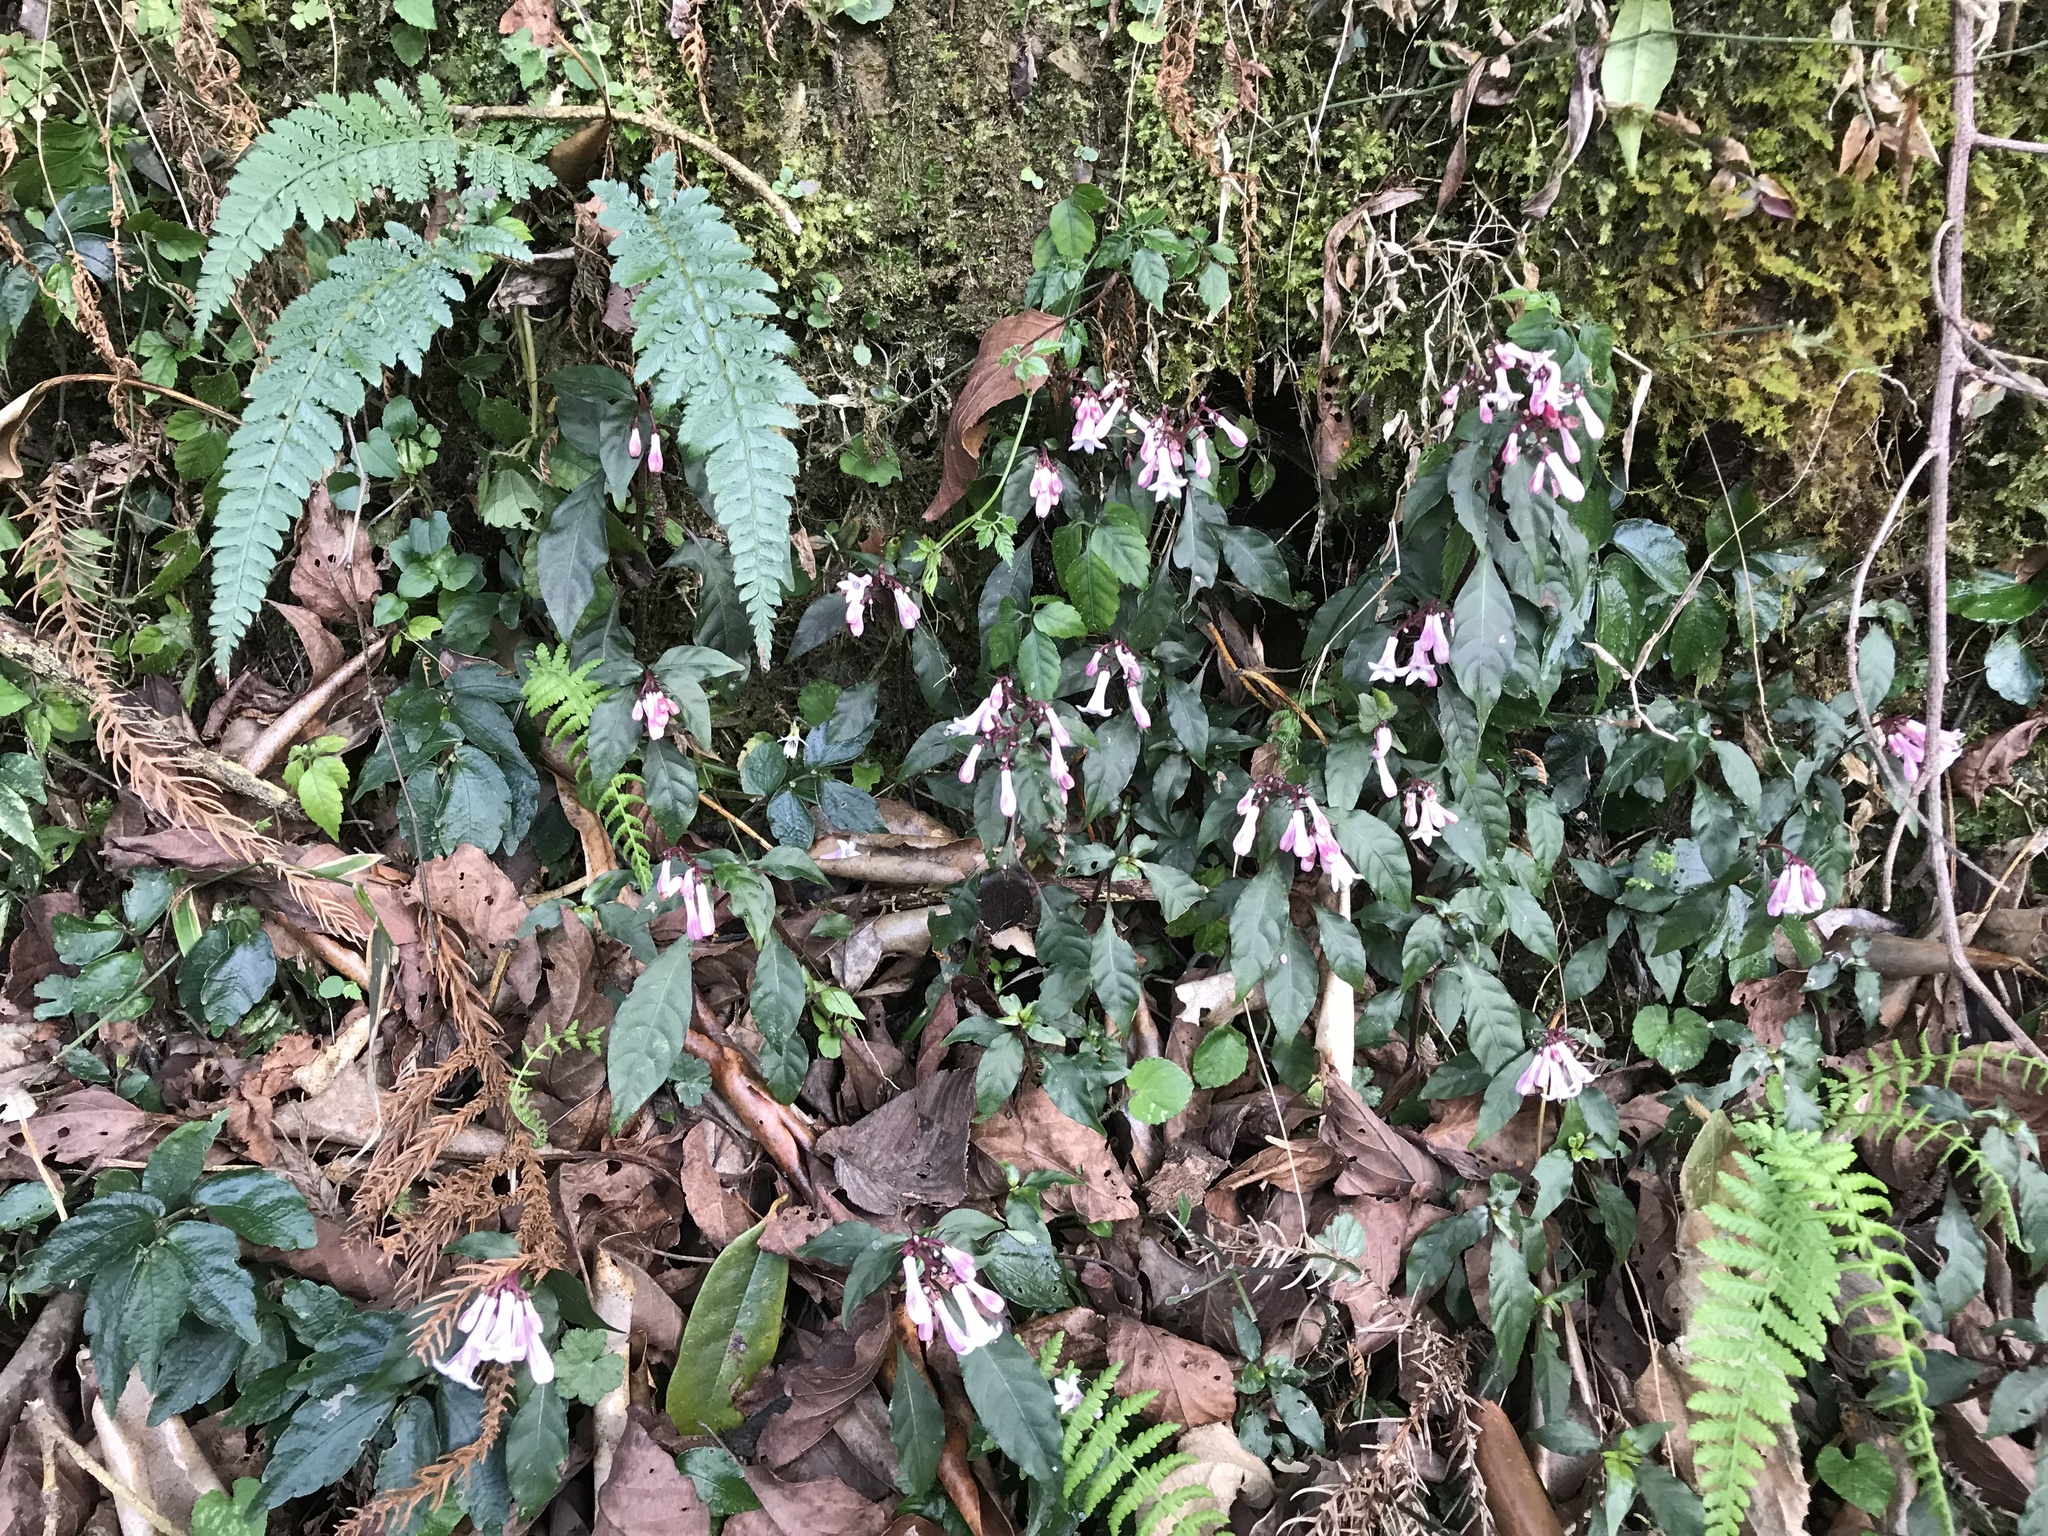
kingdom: Plantae
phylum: Tracheophyta
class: Magnoliopsida
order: Gentianales
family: Rubiaceae
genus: Ophiorrhiza
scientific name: Ophiorrhiza japonica
